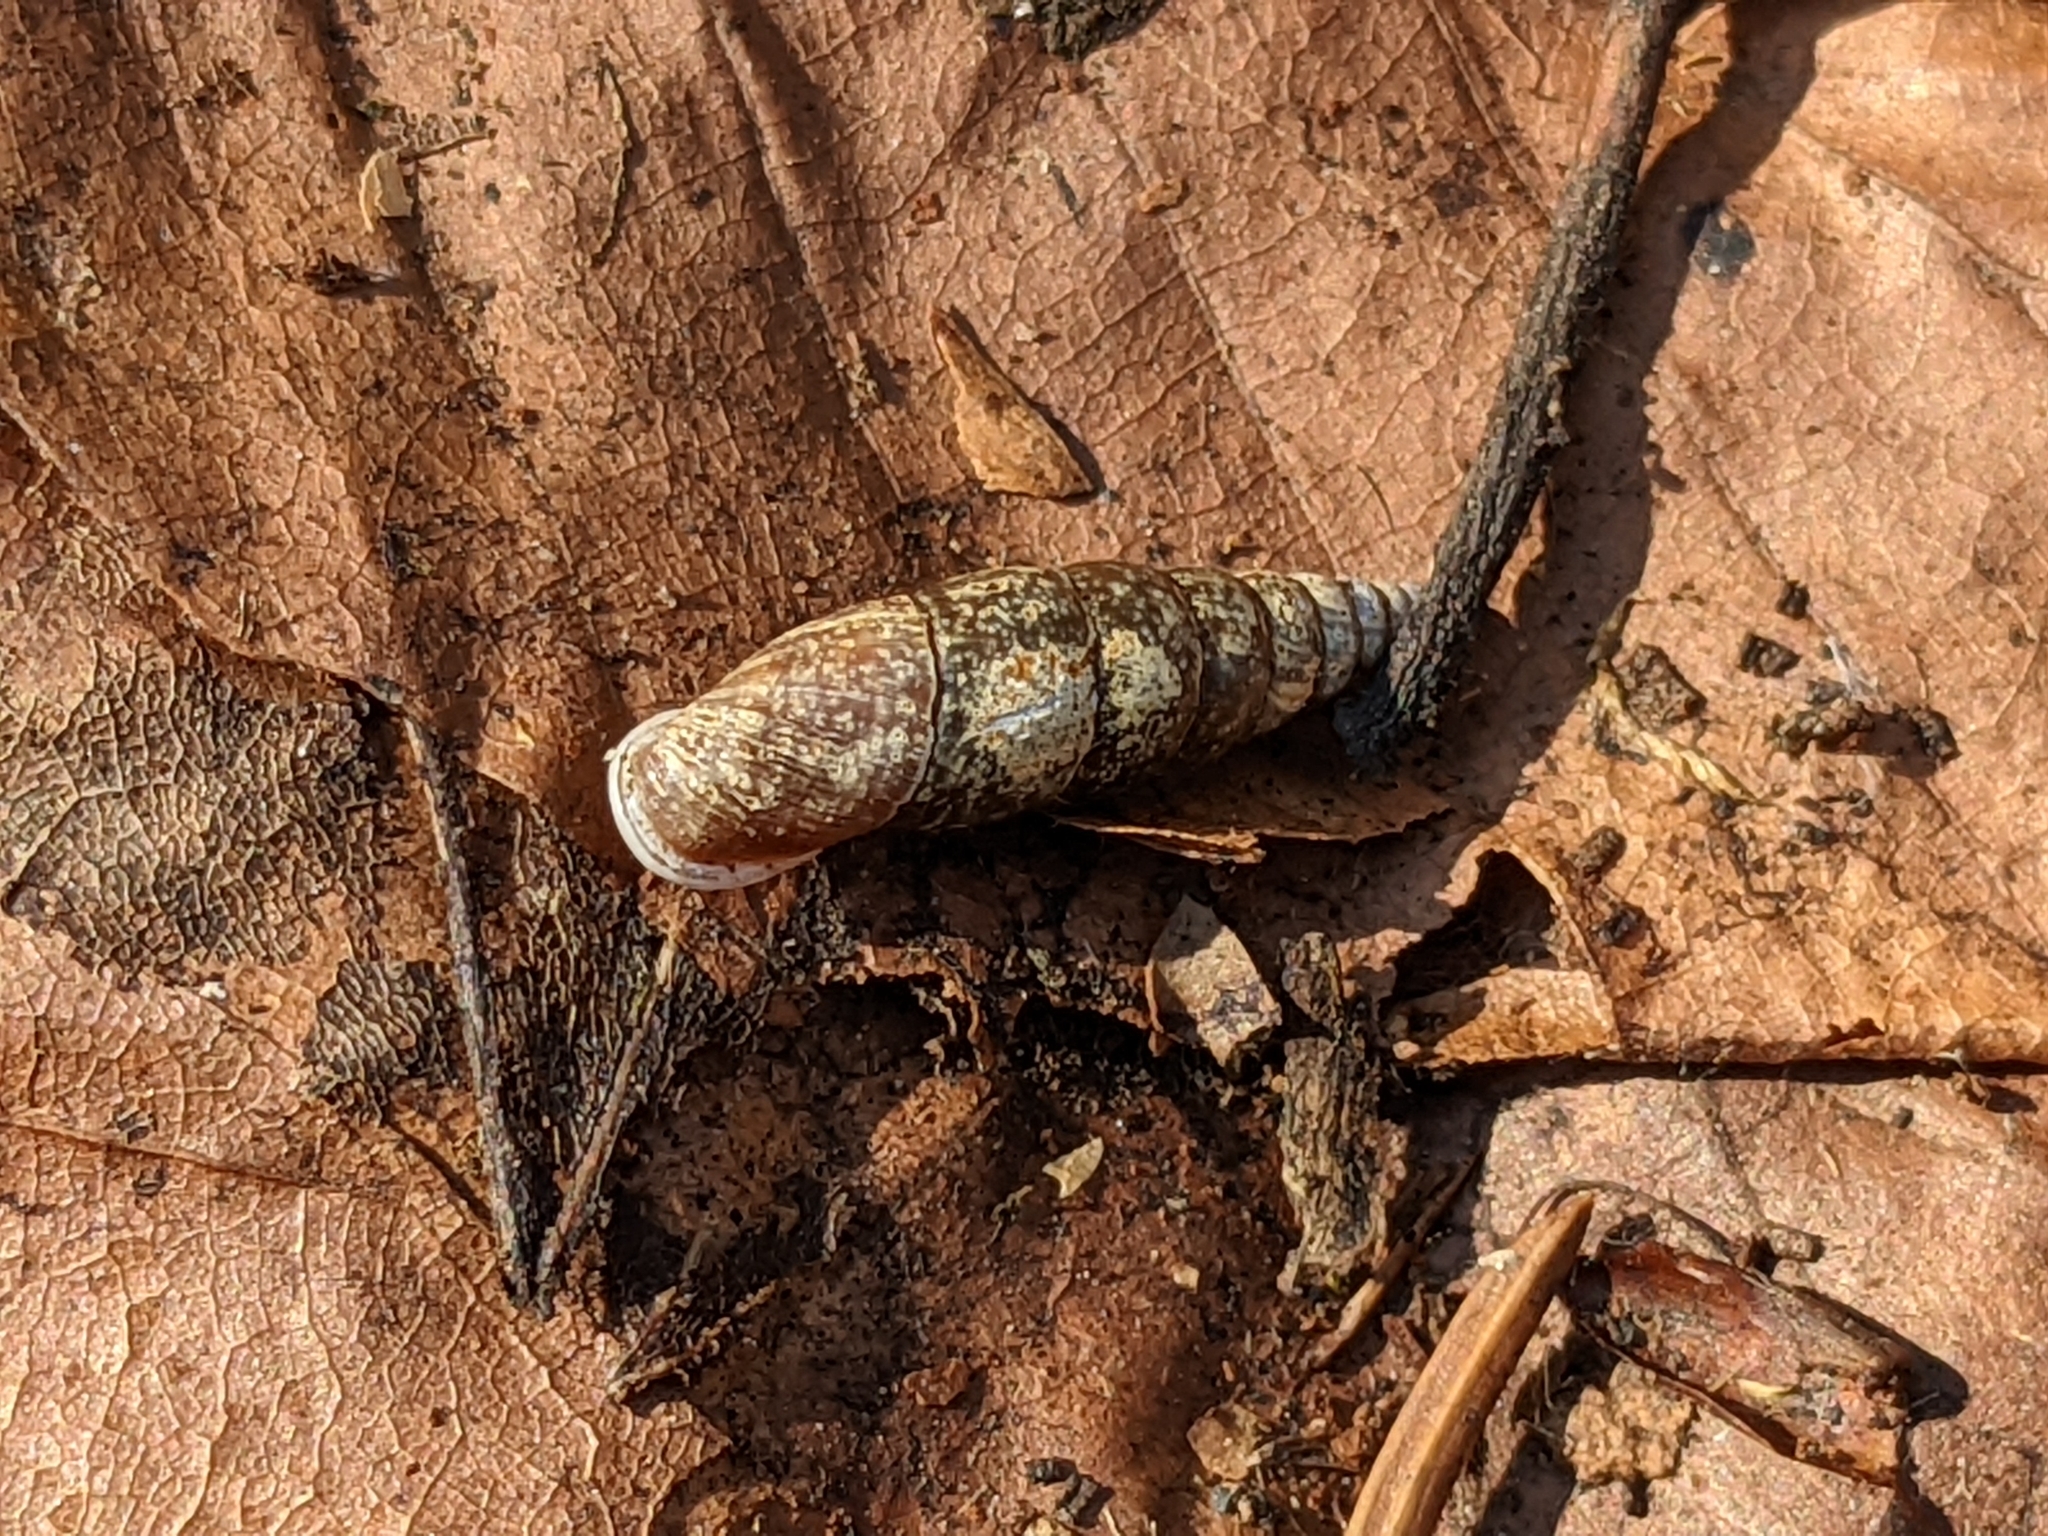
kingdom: Animalia
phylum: Mollusca
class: Gastropoda
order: Stylommatophora
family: Clausiliidae
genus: Cochlodina
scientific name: Cochlodina laminata
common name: Plaited door snail
